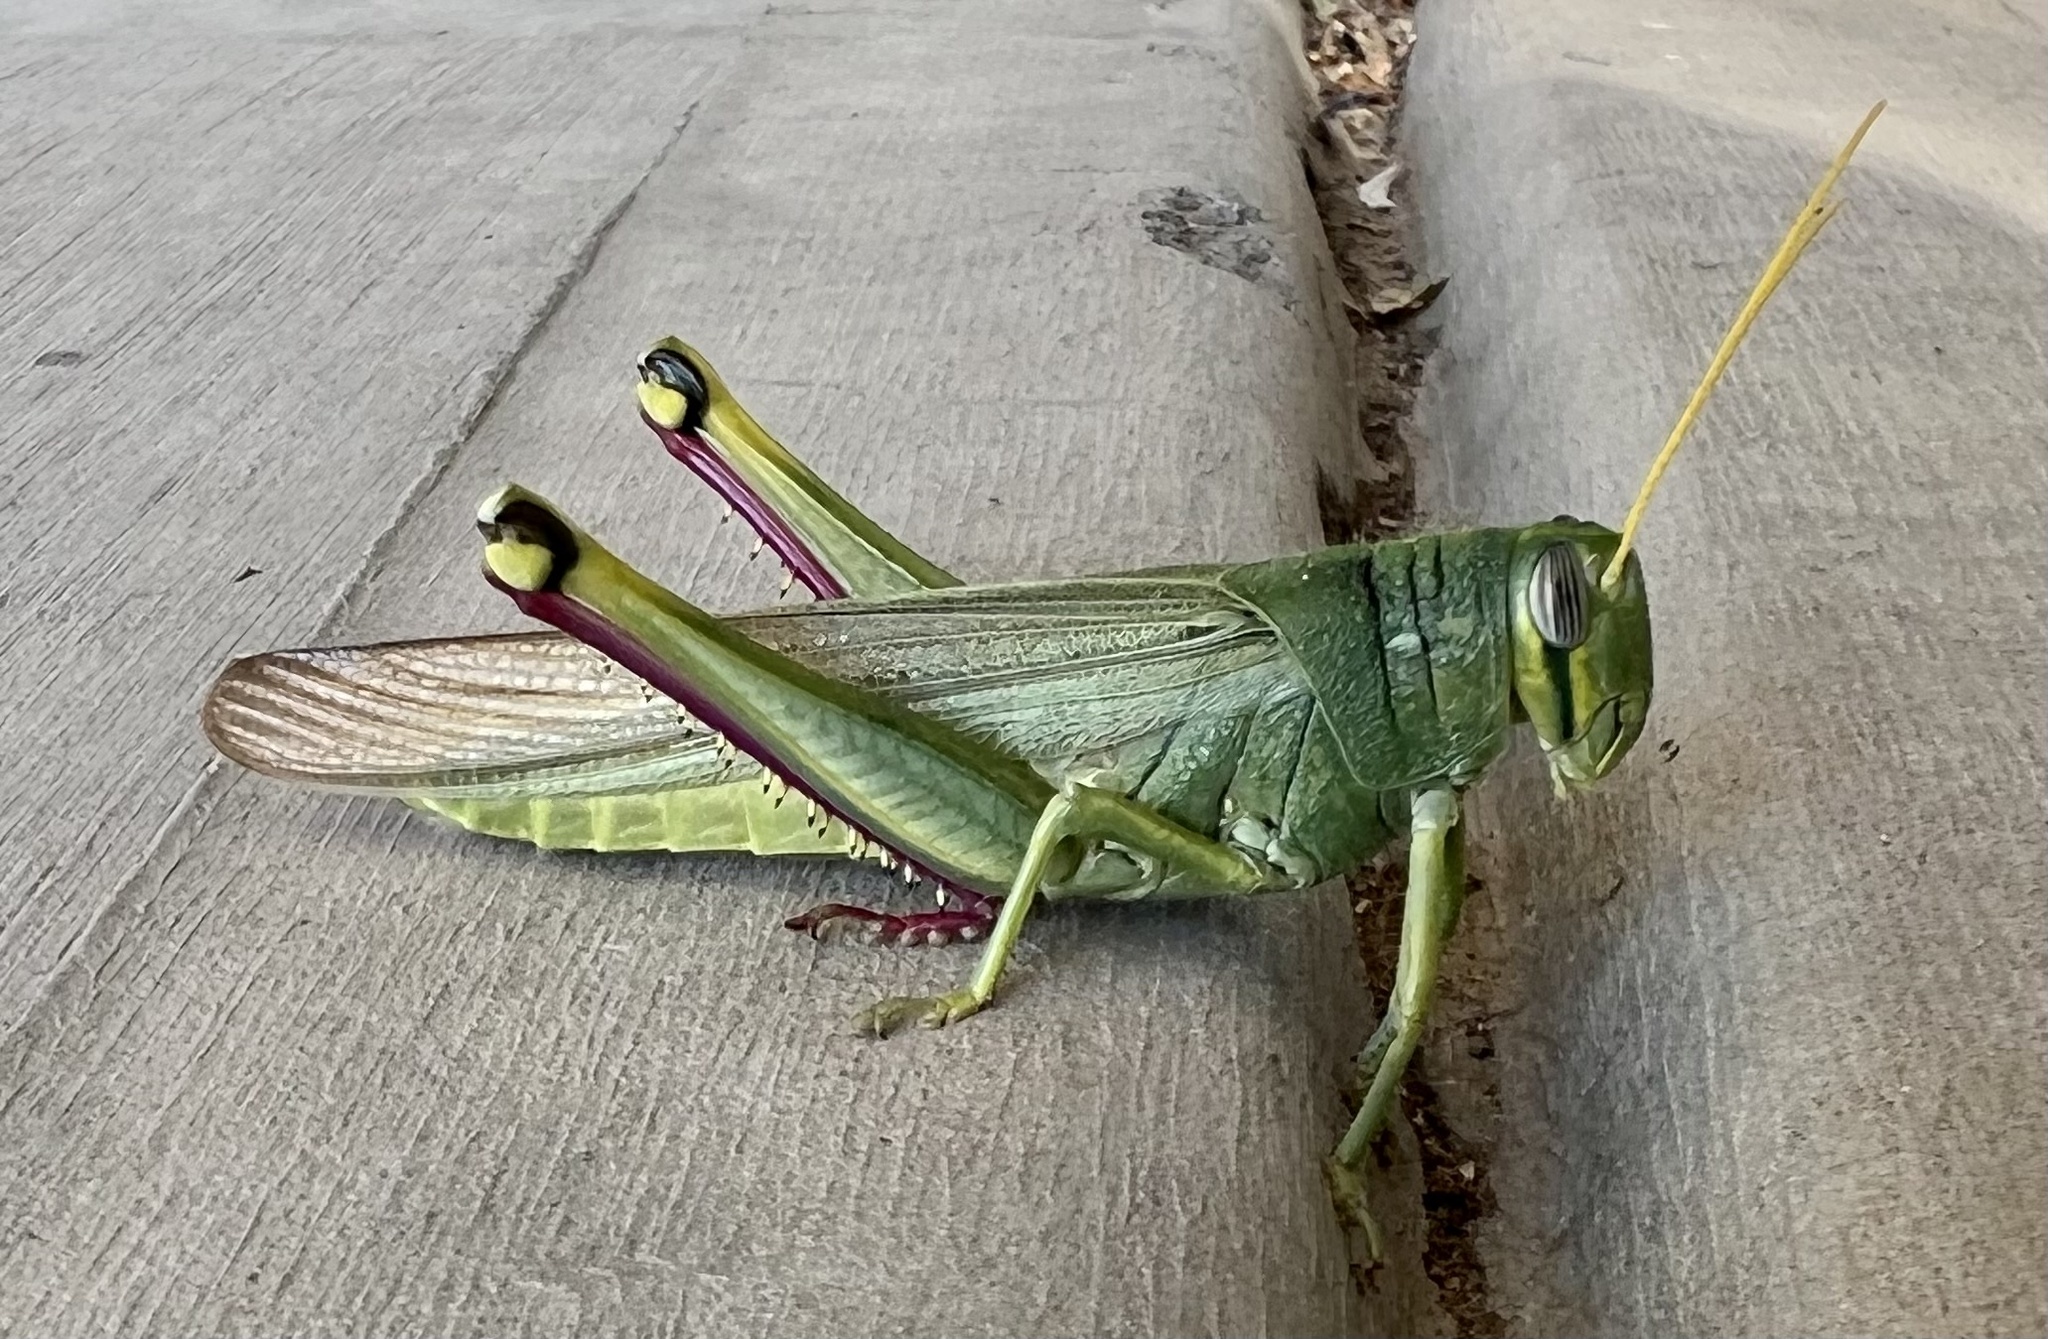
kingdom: Animalia
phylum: Arthropoda
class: Insecta
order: Orthoptera
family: Acrididae
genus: Schistocerca
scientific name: Schistocerca shoshone
